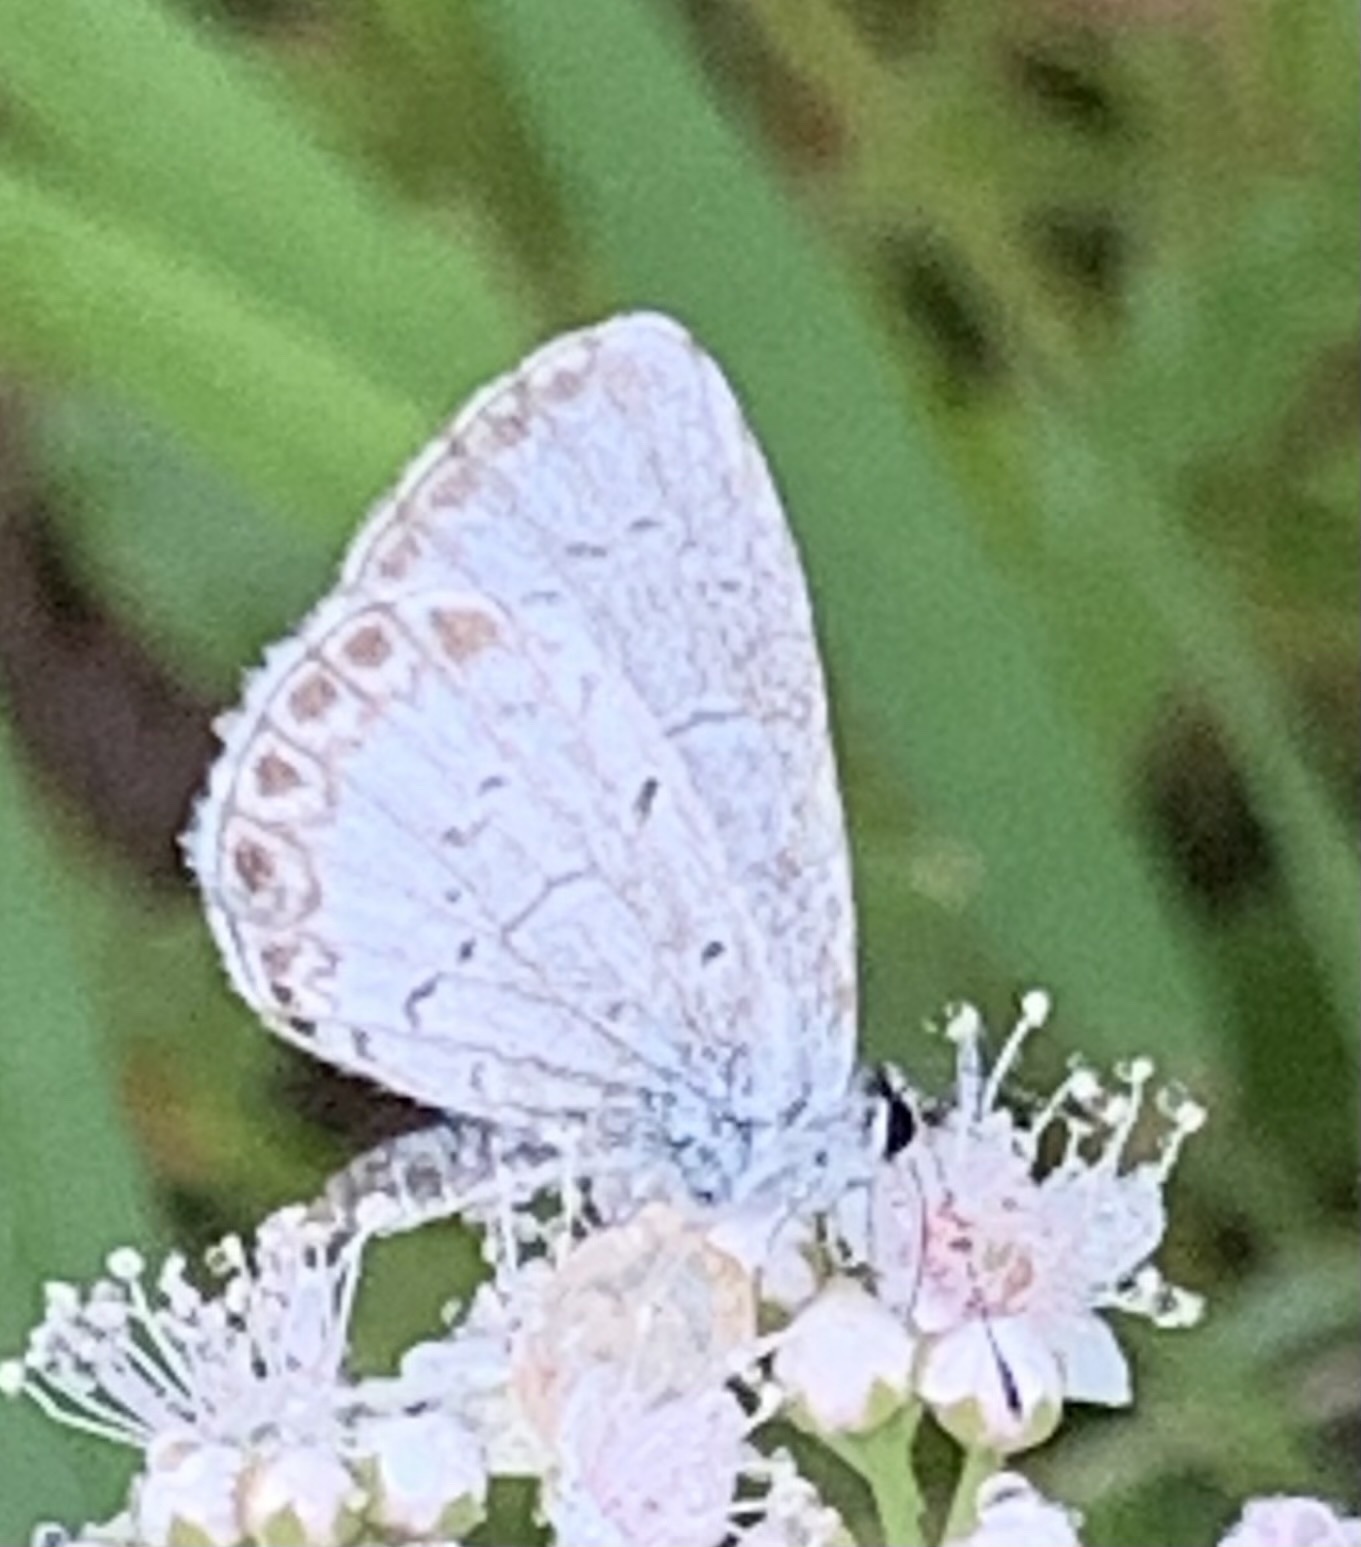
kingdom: Animalia
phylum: Arthropoda
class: Insecta
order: Lepidoptera
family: Lycaenidae
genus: Celastrina
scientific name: Celastrina lucia
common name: Lucia azure
